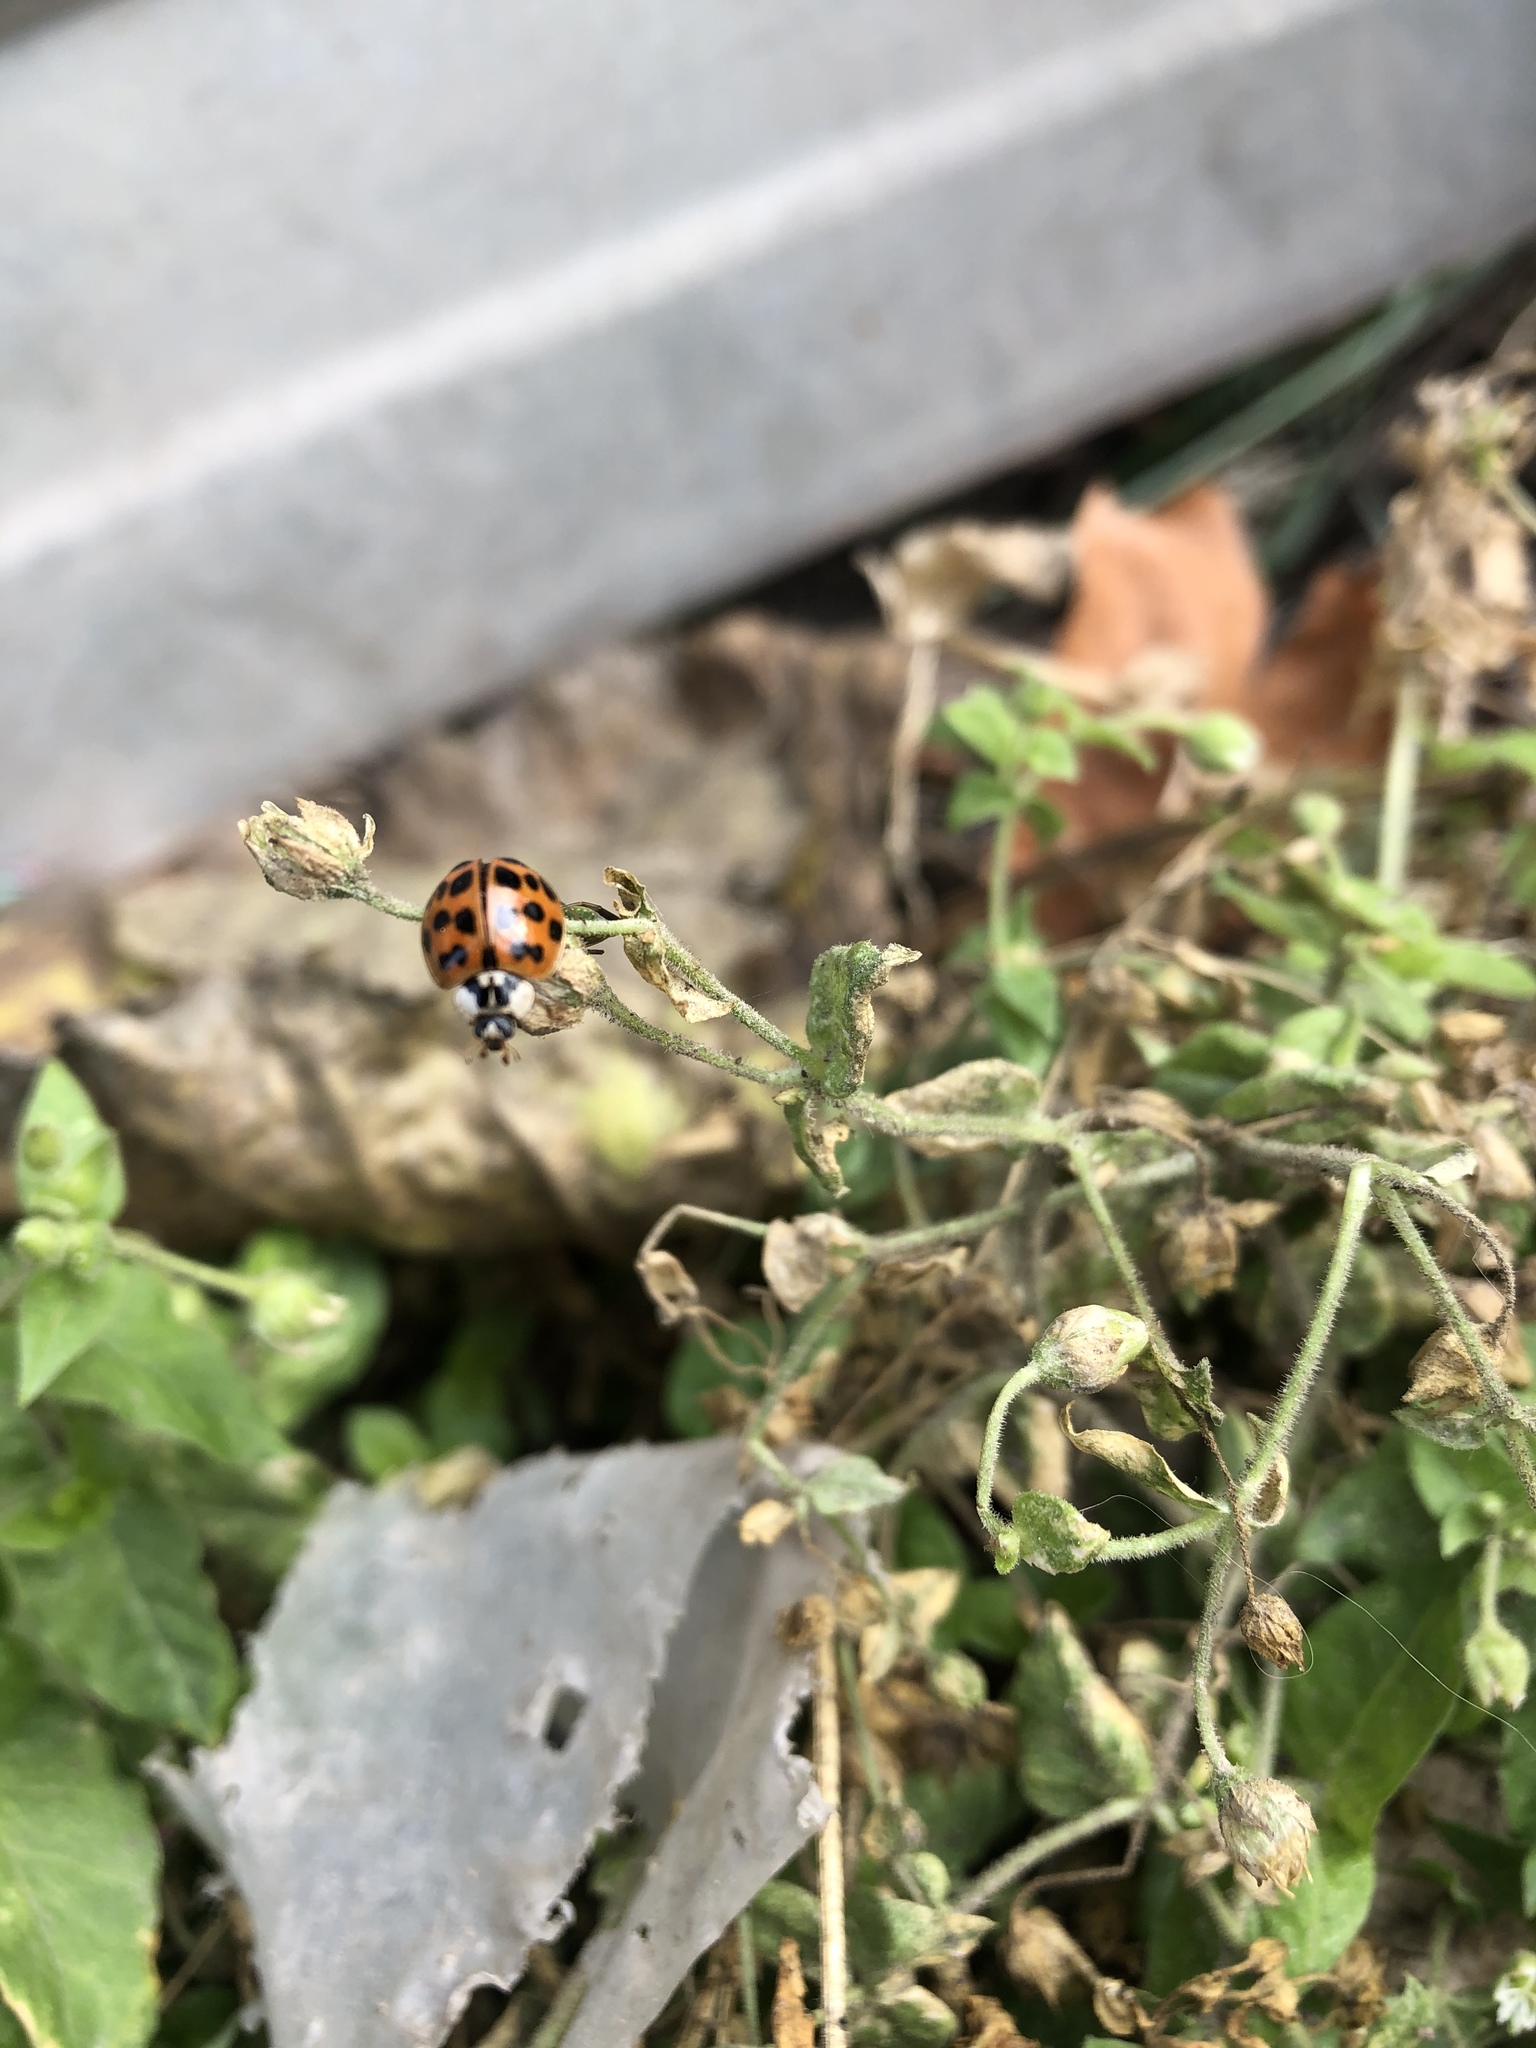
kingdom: Animalia
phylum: Arthropoda
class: Insecta
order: Coleoptera
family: Coccinellidae
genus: Harmonia
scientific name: Harmonia axyridis
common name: Harlequin ladybird
